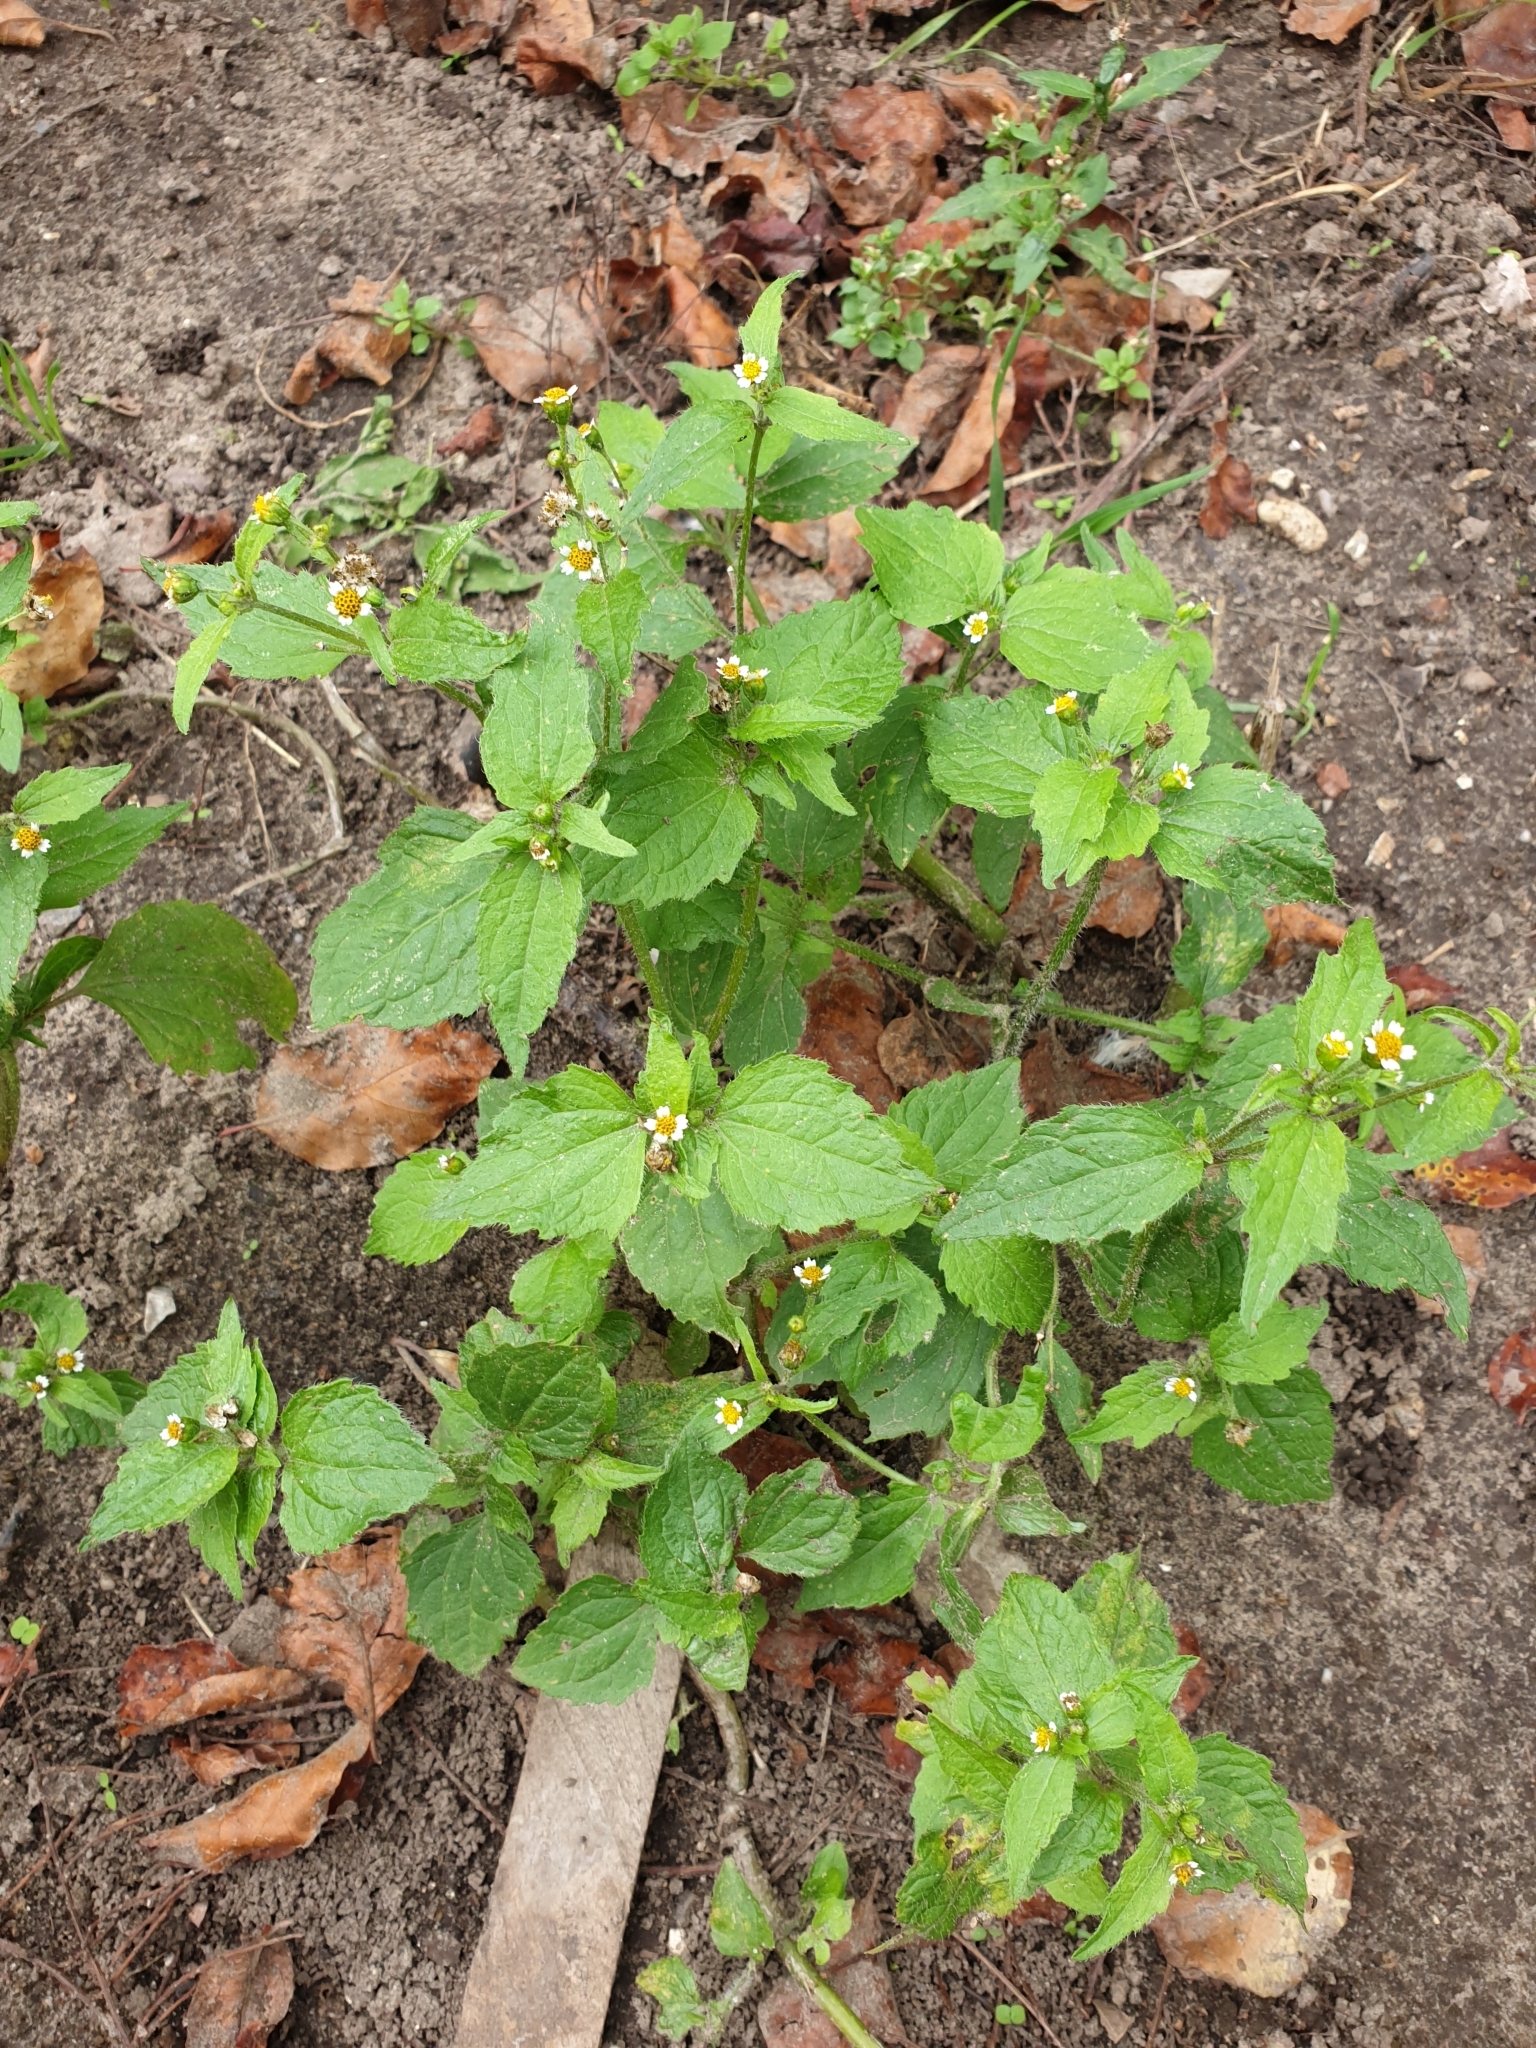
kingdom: Plantae
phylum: Tracheophyta
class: Magnoliopsida
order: Asterales
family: Asteraceae
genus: Galinsoga
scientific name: Galinsoga quadriradiata
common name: Shaggy soldier
